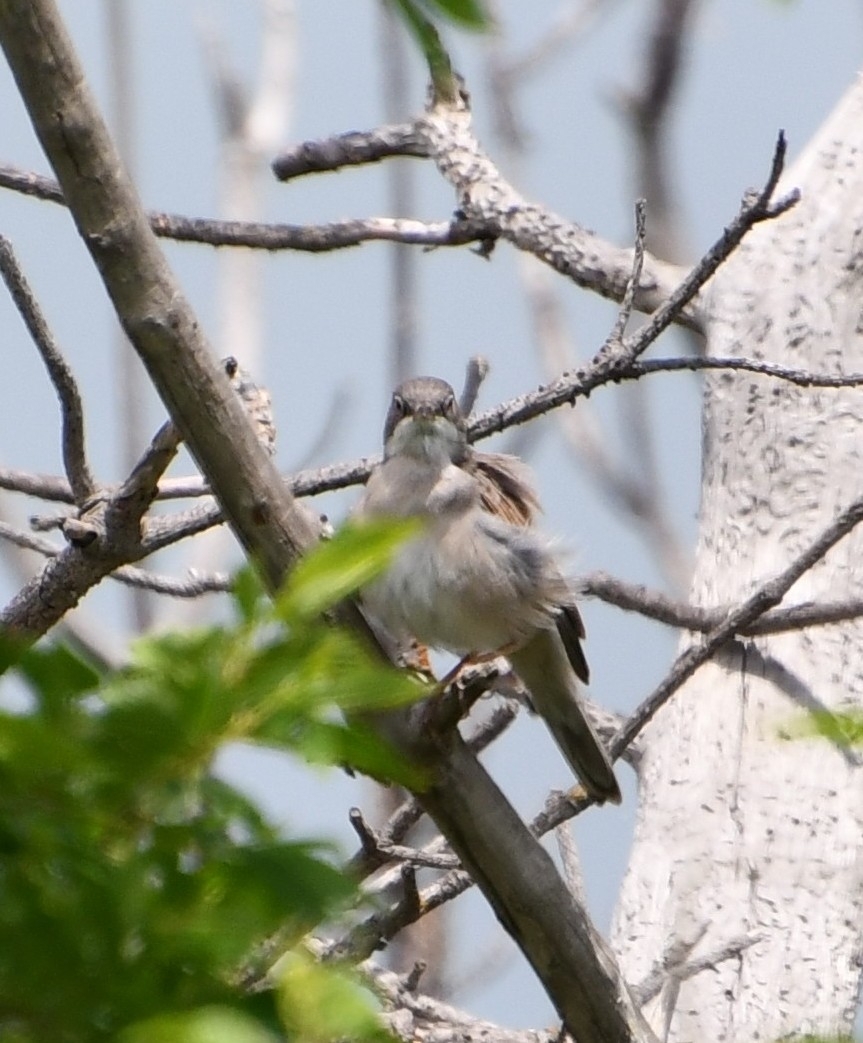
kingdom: Animalia
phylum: Chordata
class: Aves
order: Passeriformes
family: Sylviidae
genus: Sylvia
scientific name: Sylvia communis
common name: Common whitethroat
